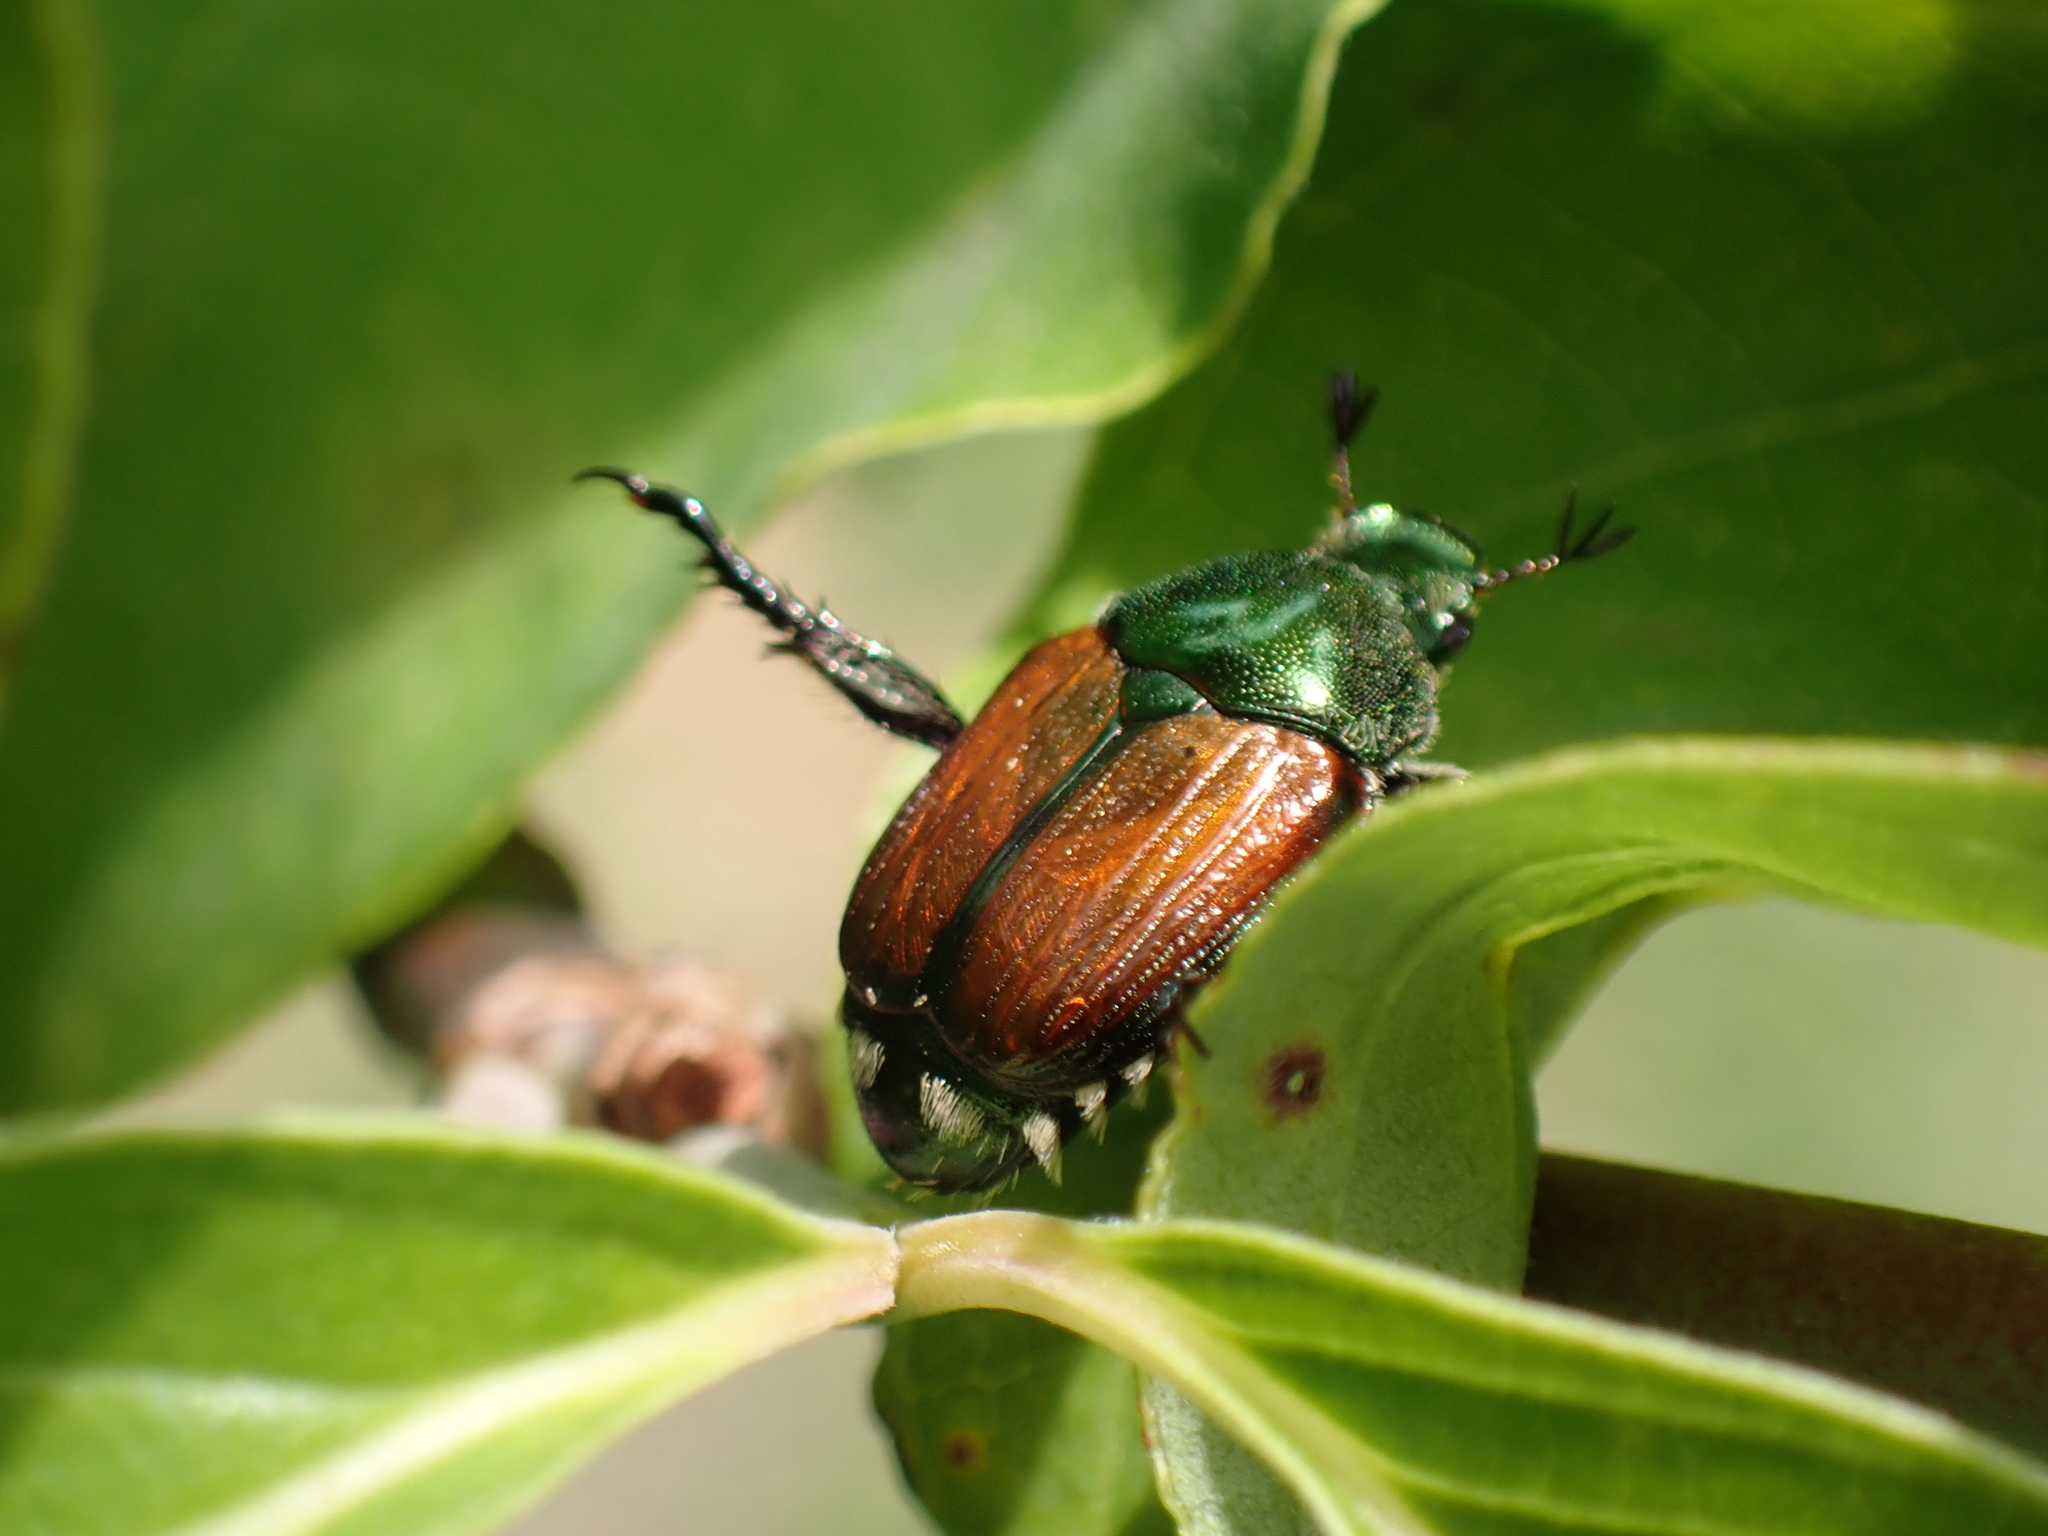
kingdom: Animalia
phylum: Arthropoda
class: Insecta
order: Coleoptera
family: Scarabaeidae
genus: Popillia
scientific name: Popillia japonica
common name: Japanese beetle
